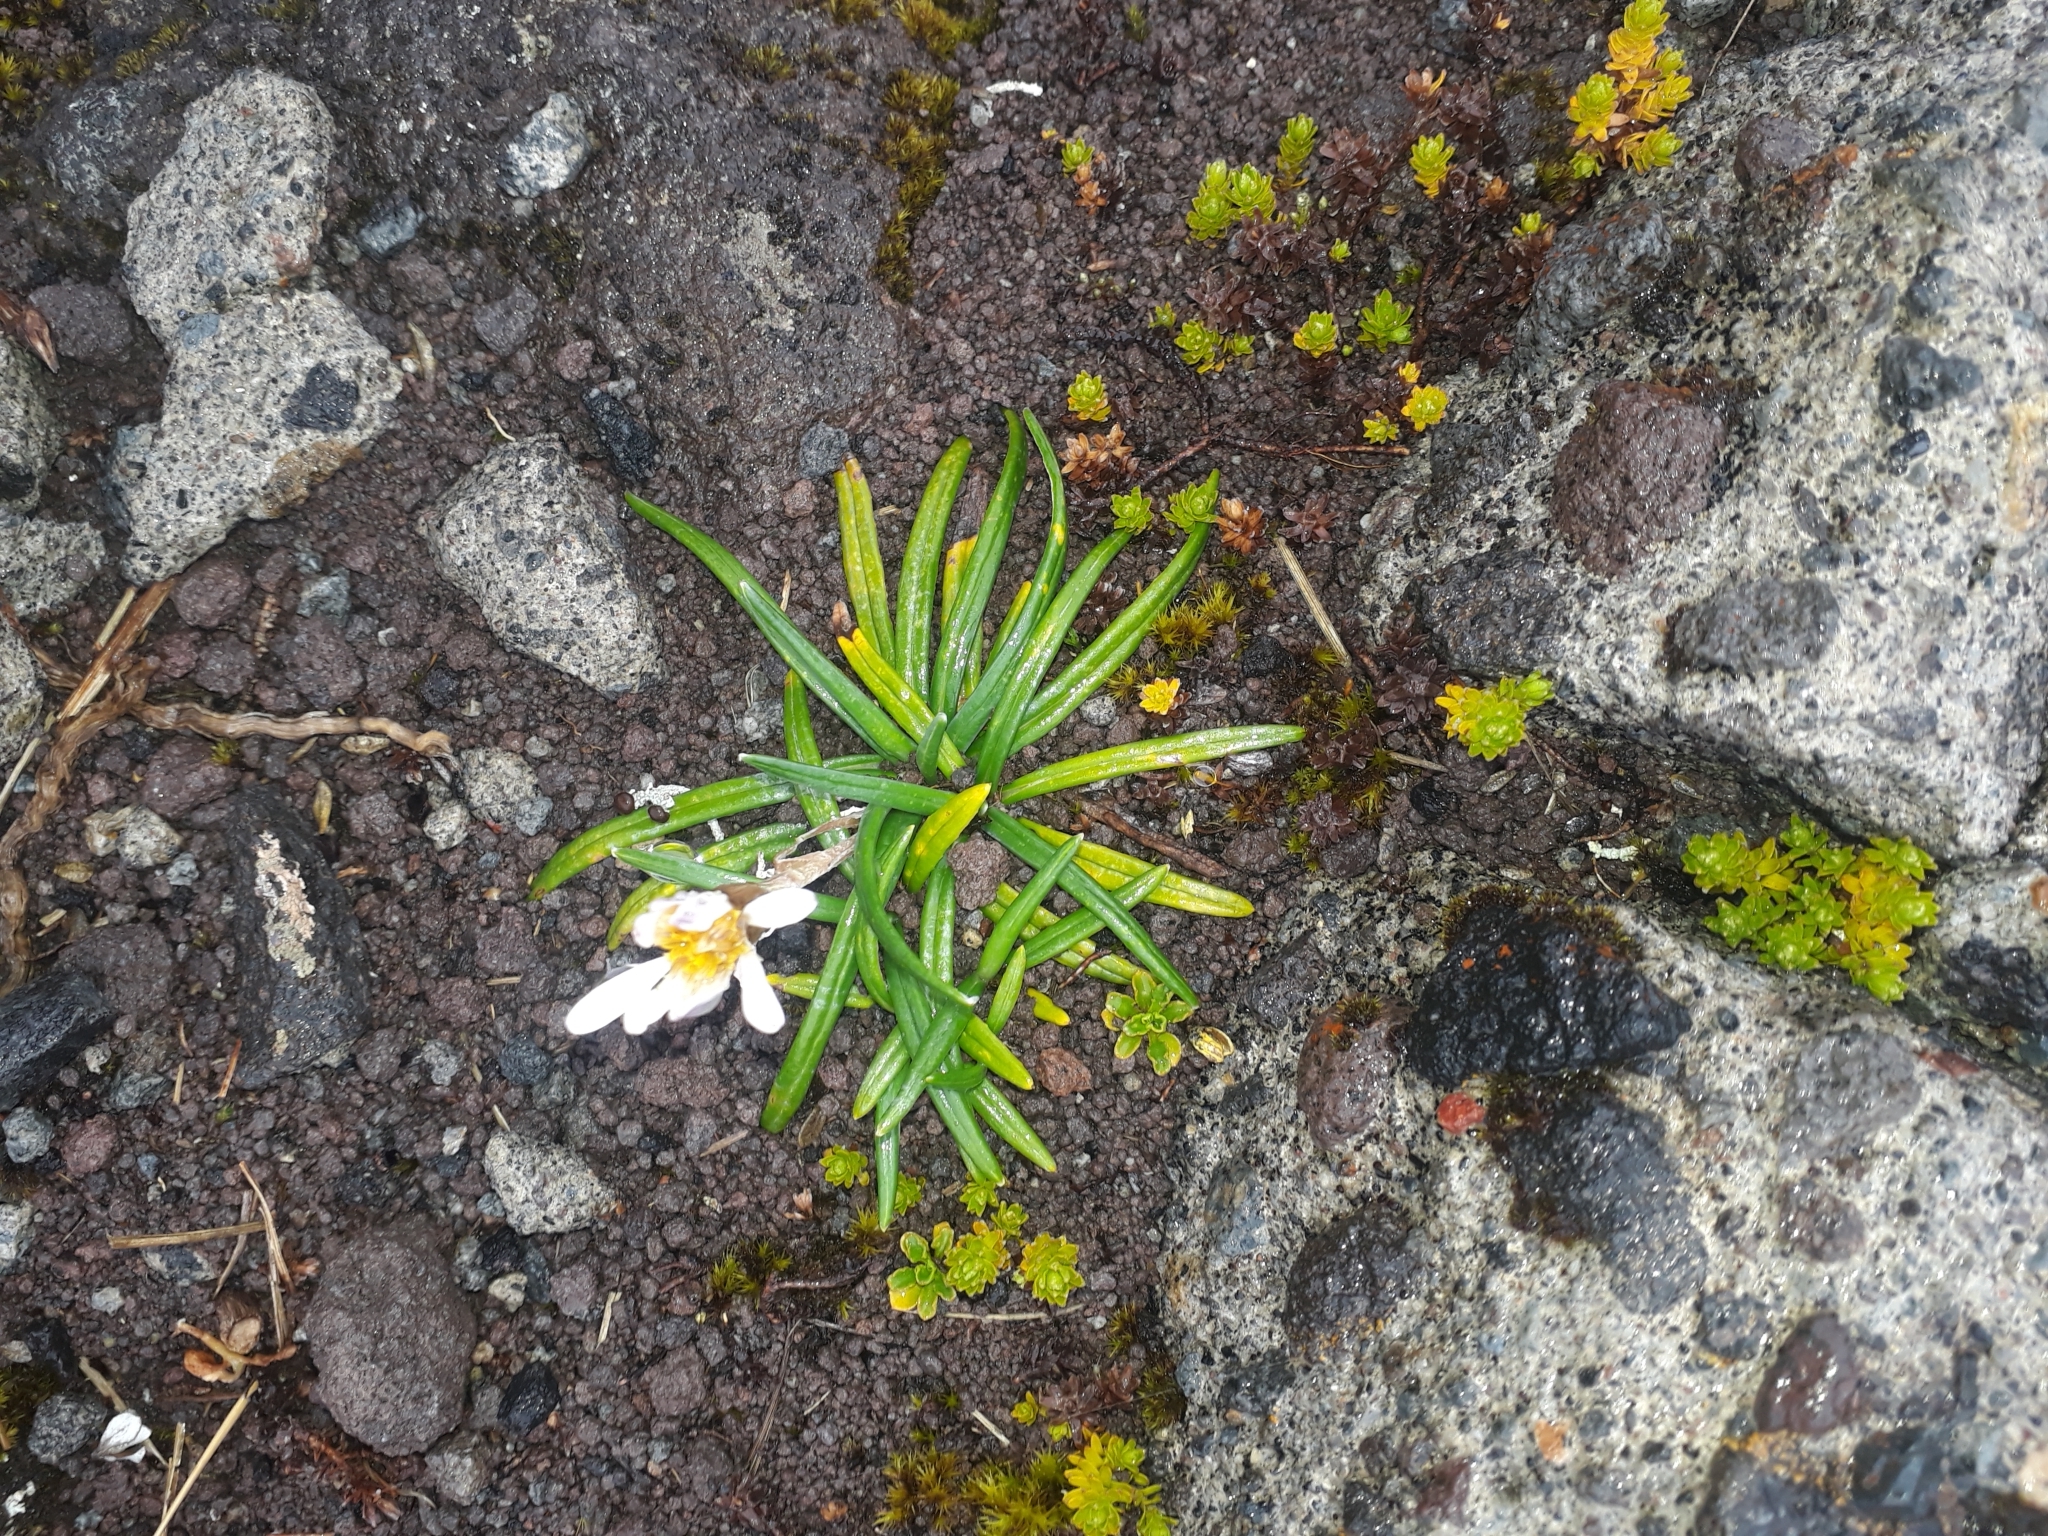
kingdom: Plantae
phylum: Tracheophyta
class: Magnoliopsida
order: Asterales
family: Asteraceae
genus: Celmisia
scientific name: Celmisia major
